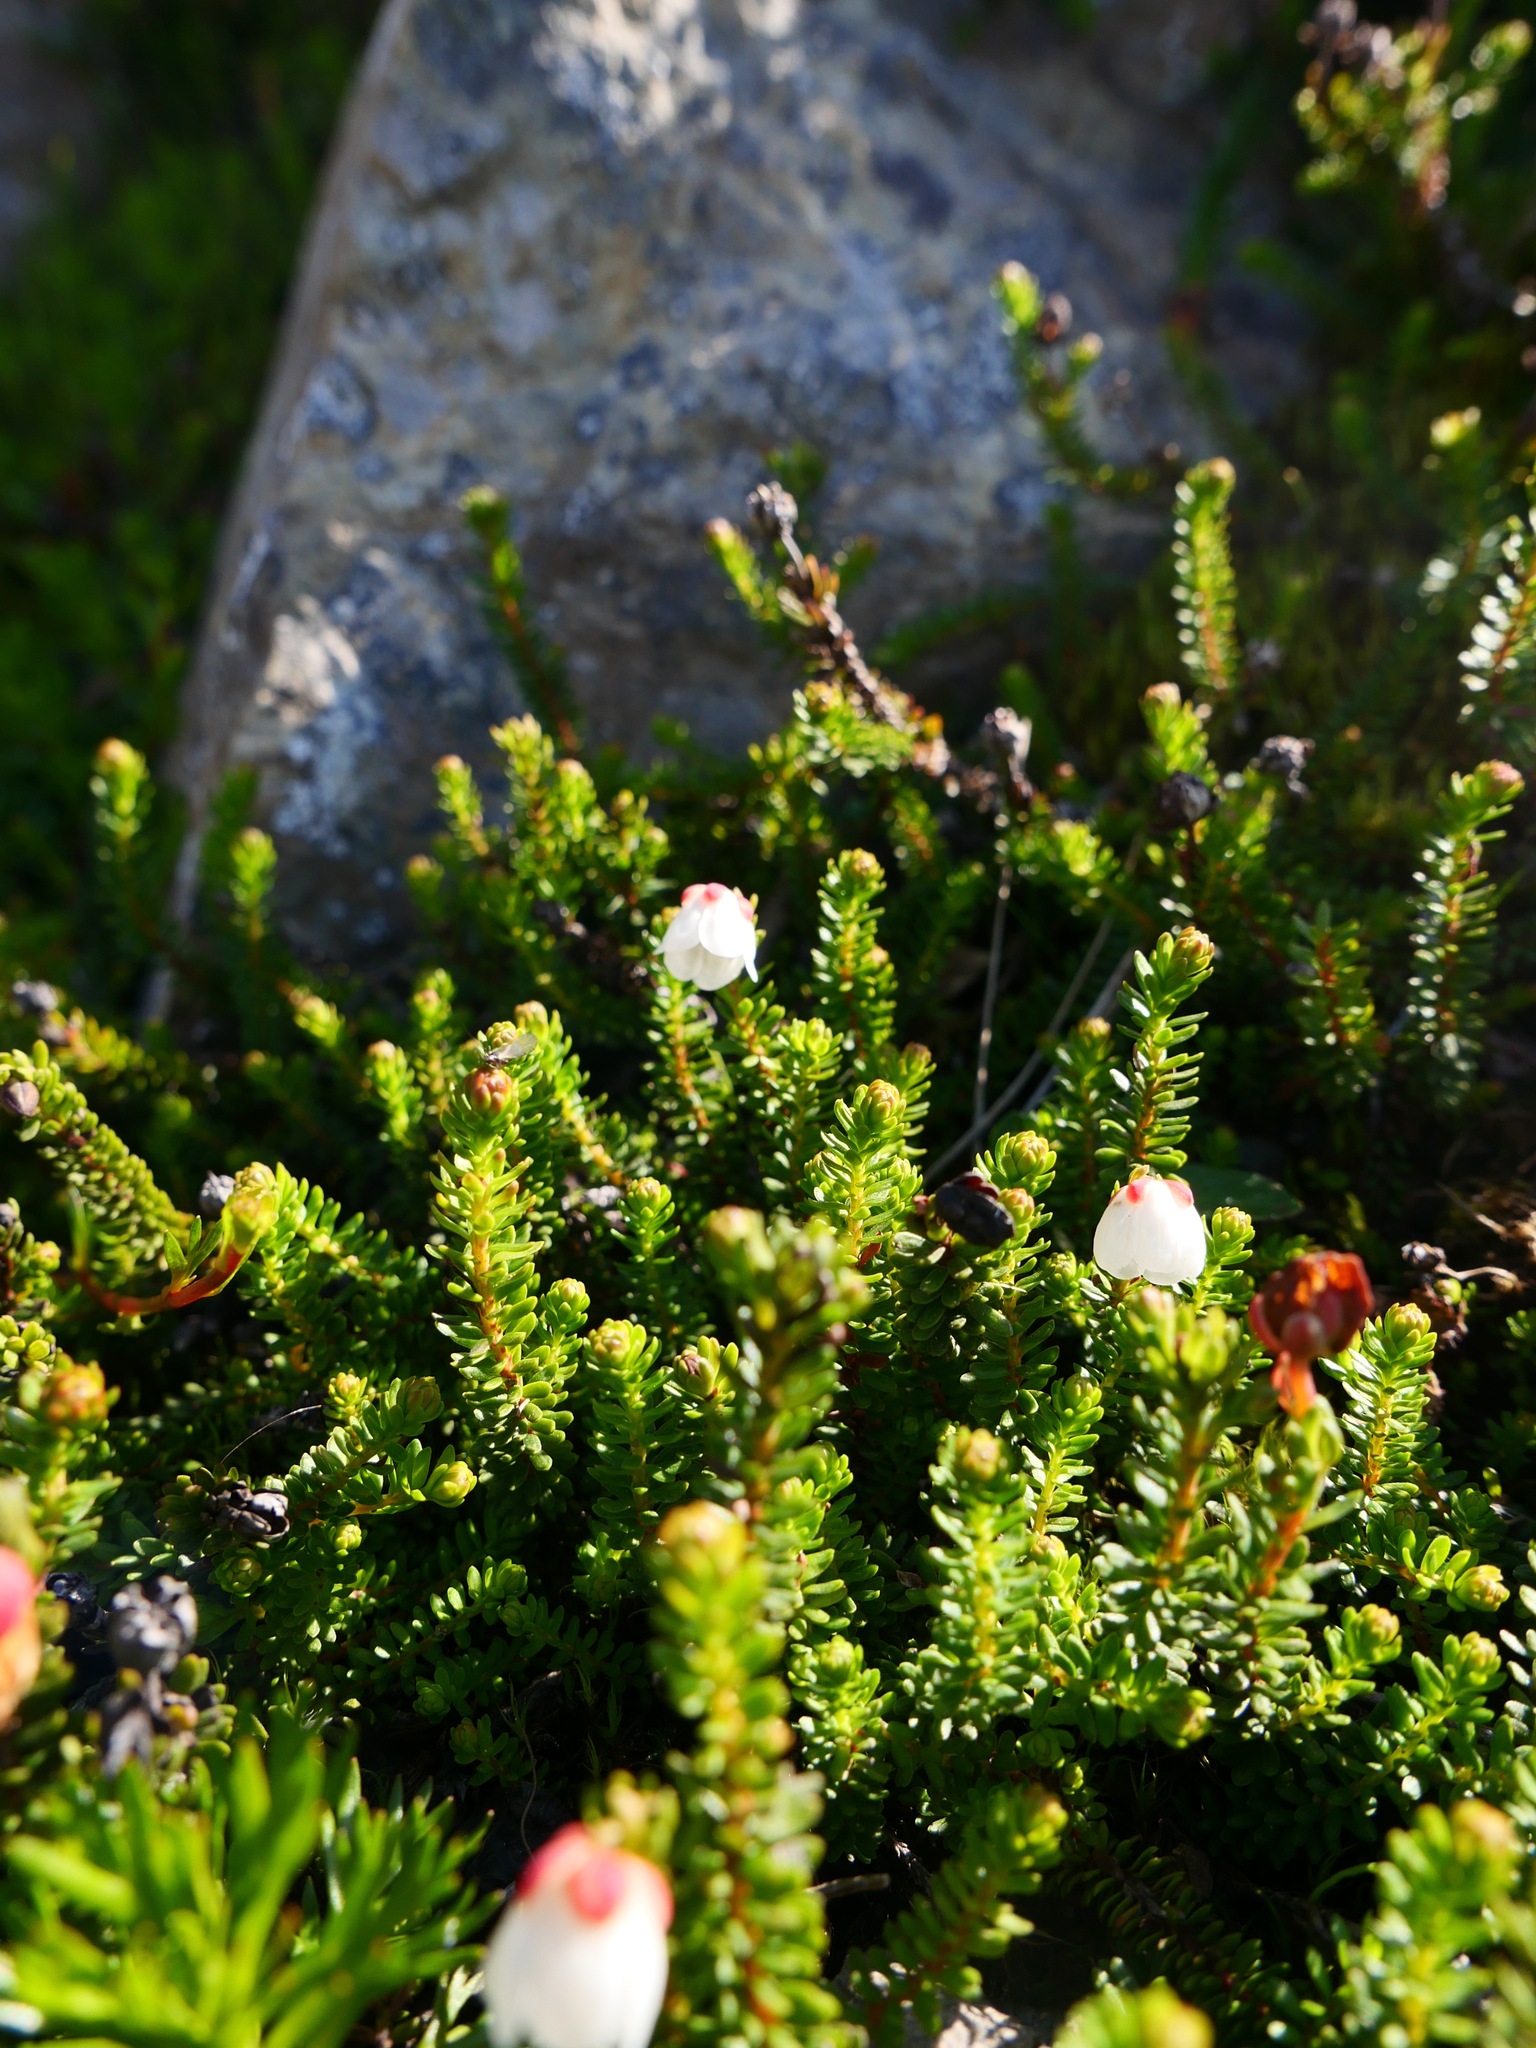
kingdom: Plantae
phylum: Tracheophyta
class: Magnoliopsida
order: Ericales
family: Ericaceae
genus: Harrimanella
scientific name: Harrimanella stelleriana
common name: Alaska bell heather
